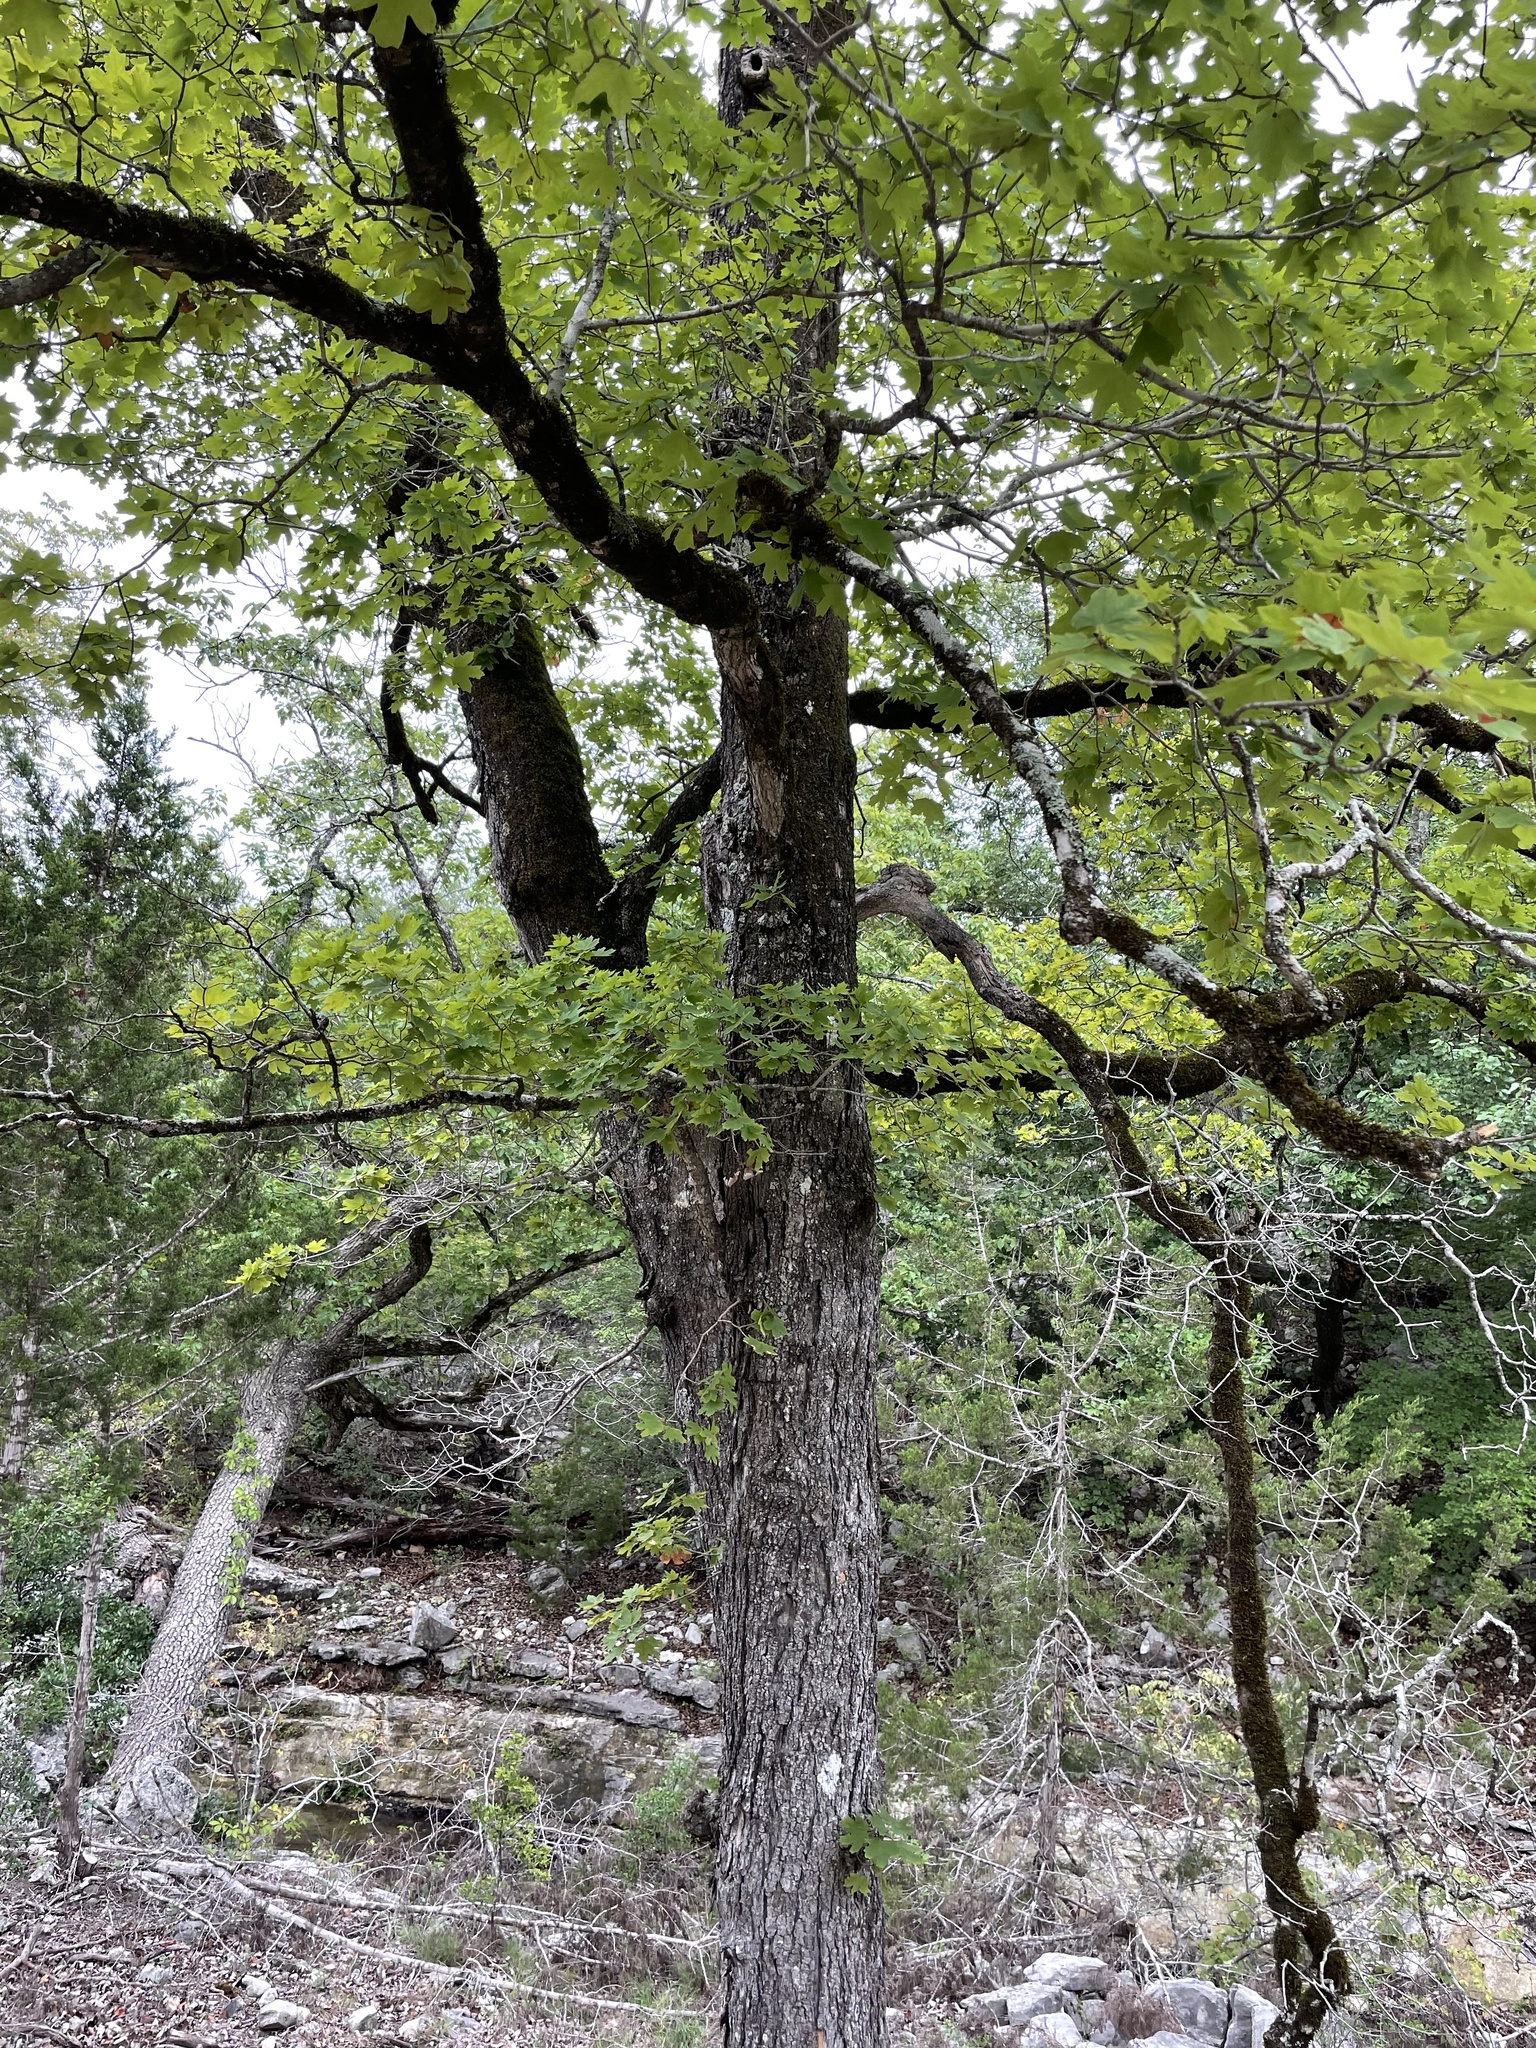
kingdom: Plantae
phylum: Tracheophyta
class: Magnoliopsida
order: Sapindales
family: Sapindaceae
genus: Acer
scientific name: Acer grandidentatum
